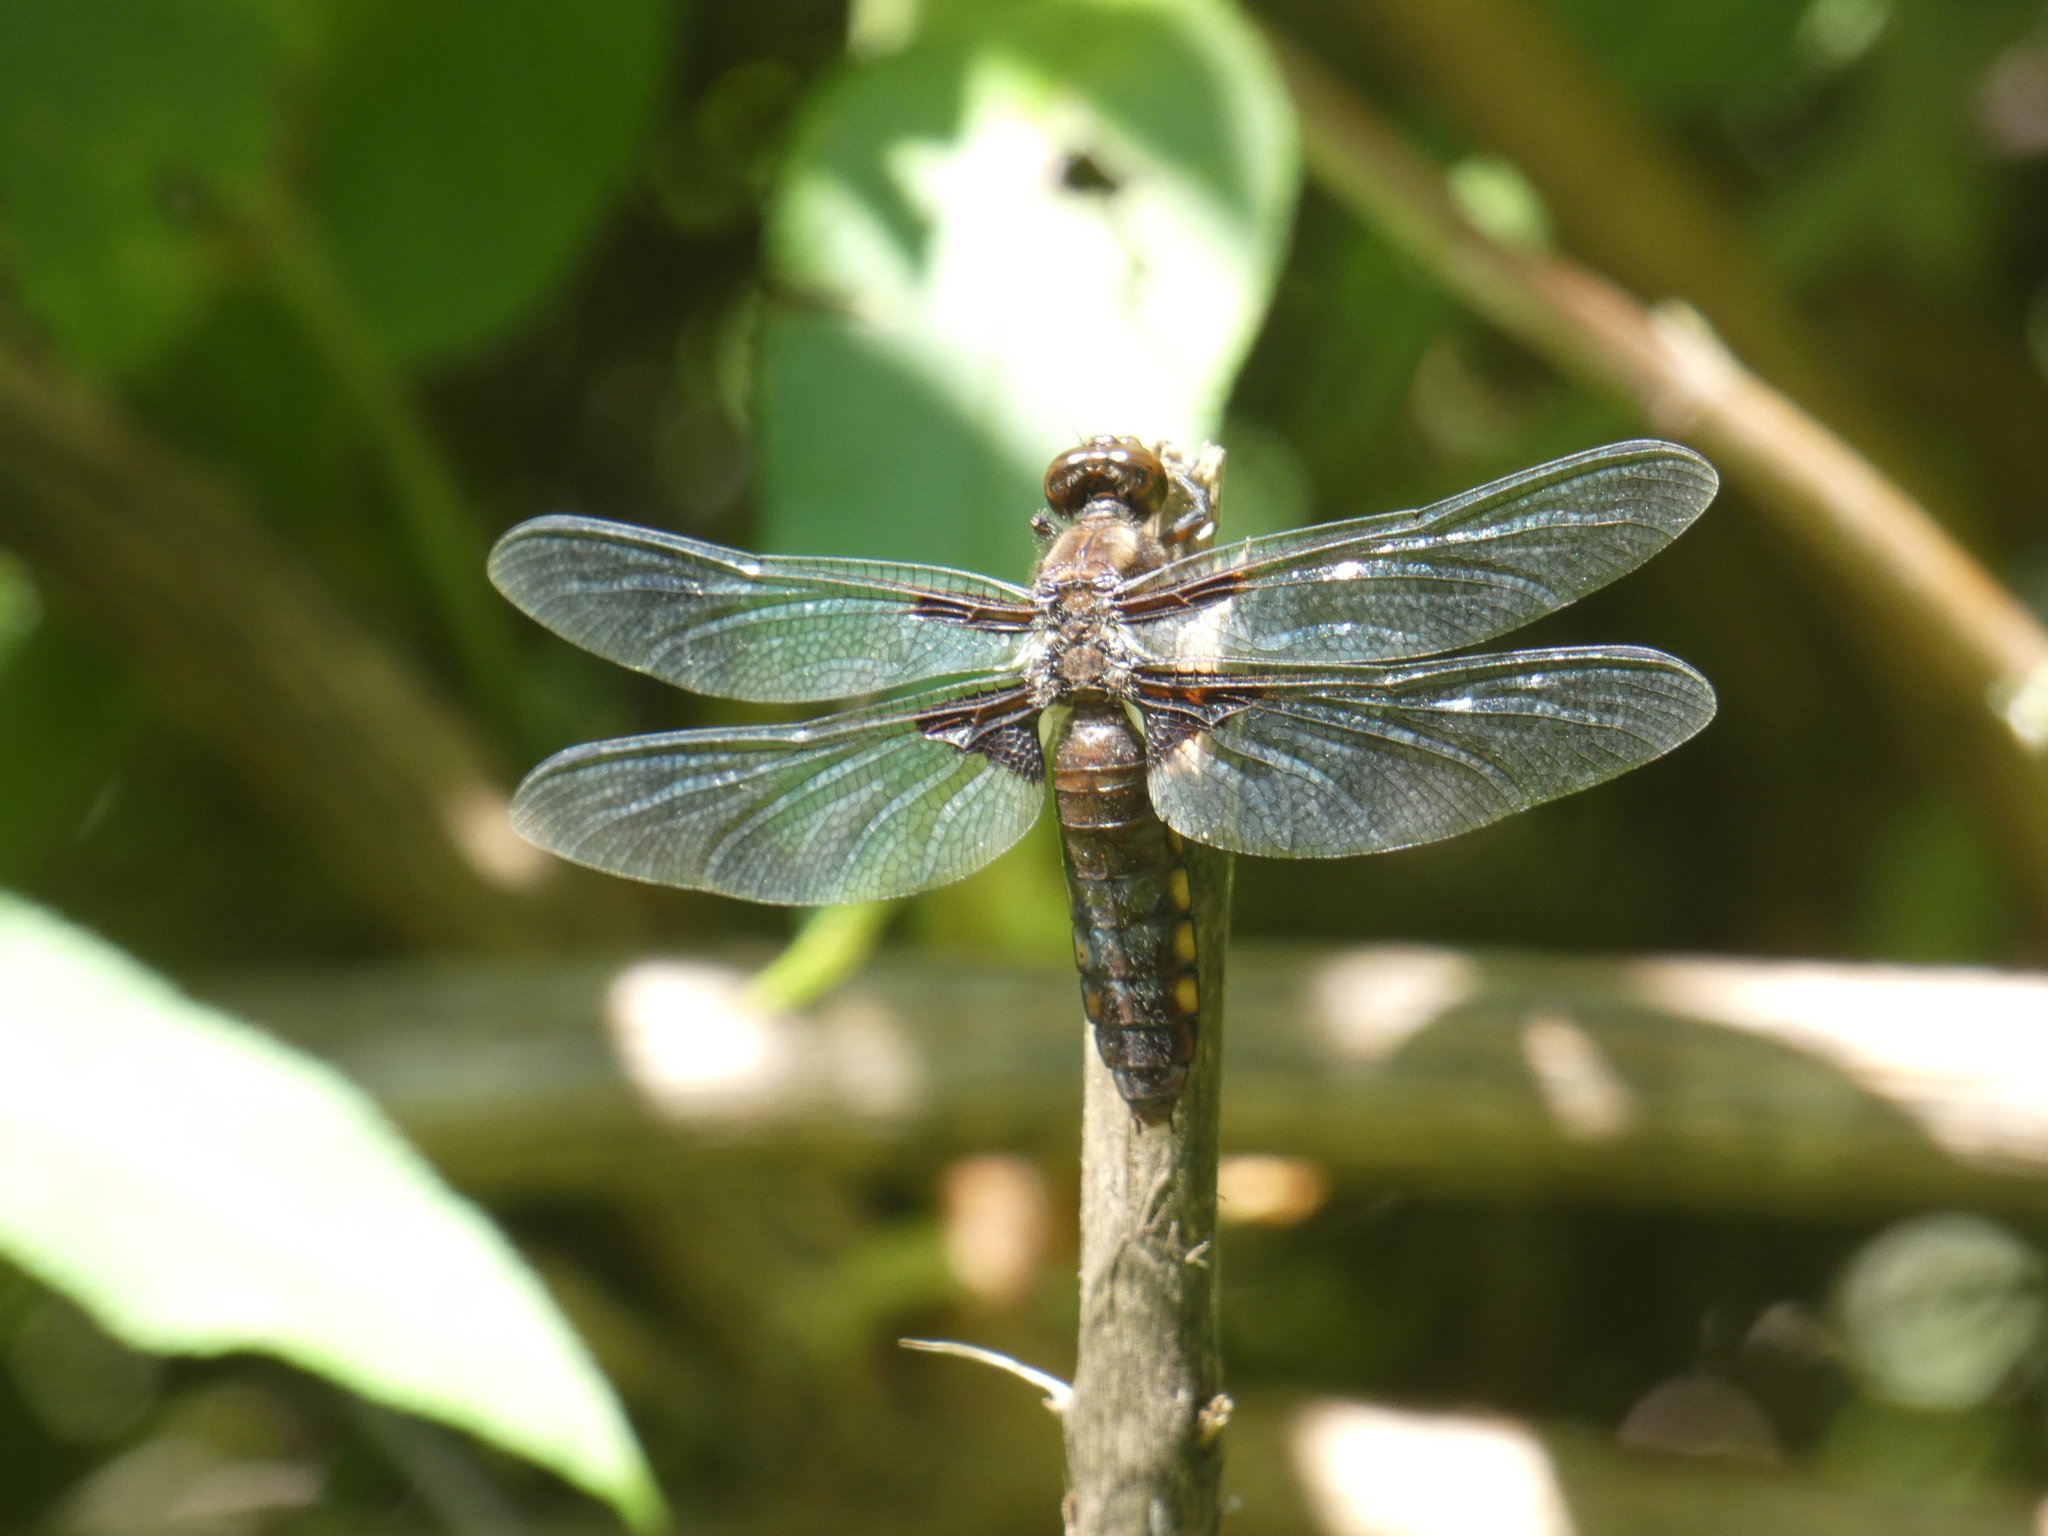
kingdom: Animalia
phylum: Arthropoda
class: Insecta
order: Odonata
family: Libellulidae
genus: Libellula
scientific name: Libellula depressa
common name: Broad-bodied chaser
